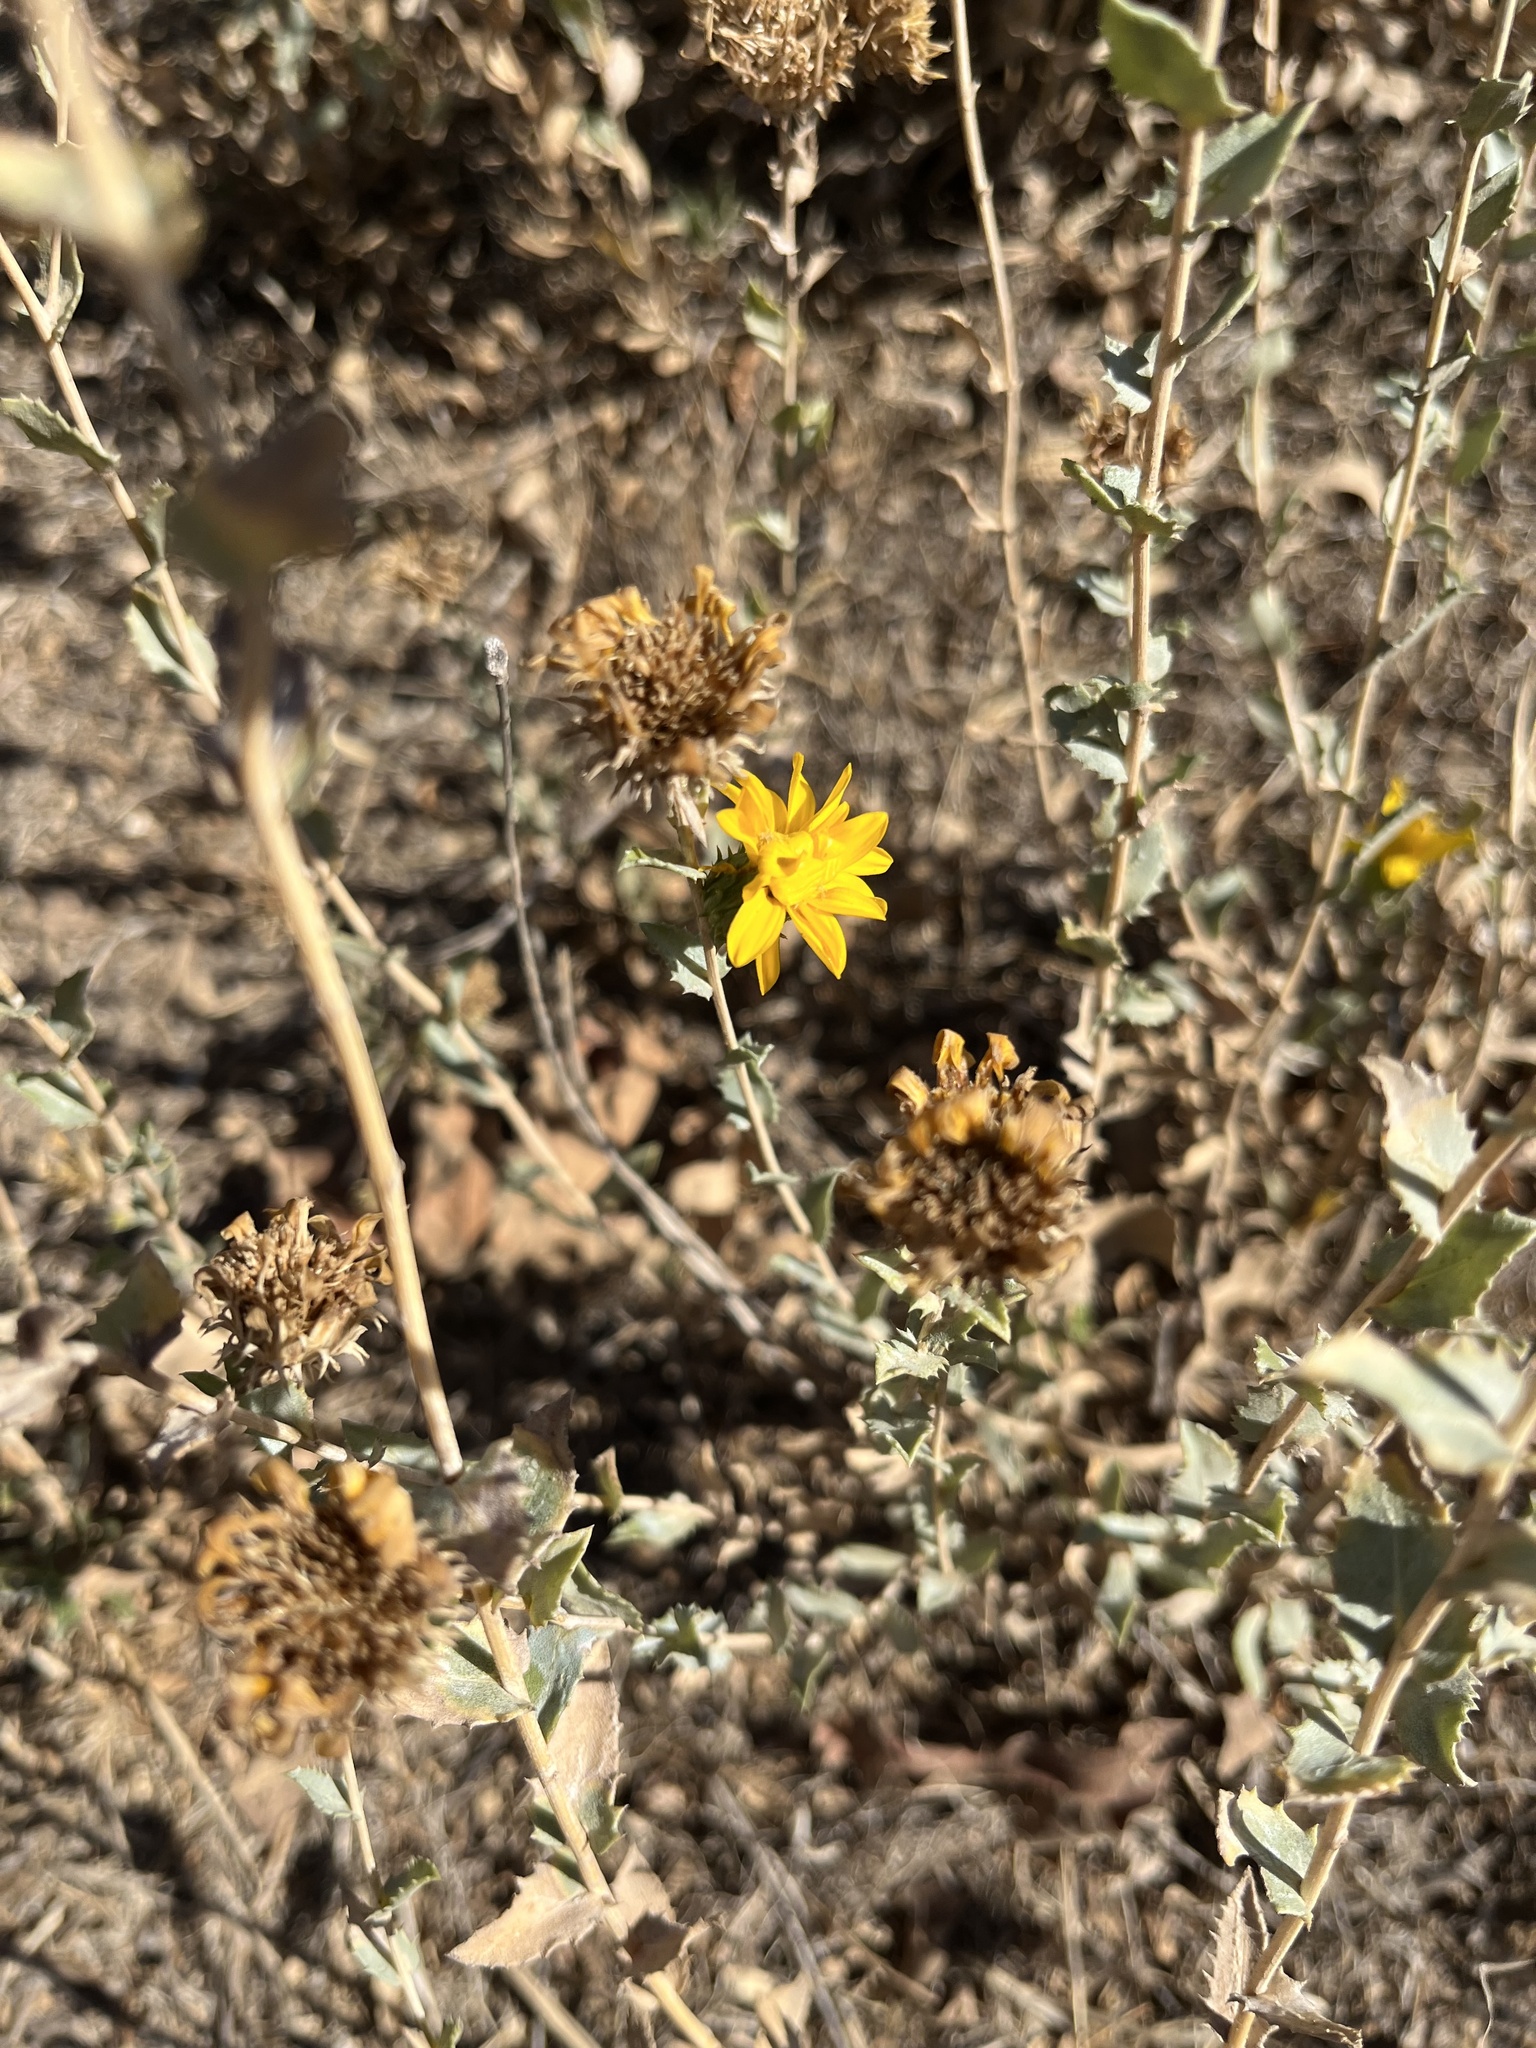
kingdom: Plantae
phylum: Tracheophyta
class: Magnoliopsida
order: Asterales
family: Asteraceae
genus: Grindelia
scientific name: Grindelia hirsutula
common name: Hairy gumweed
